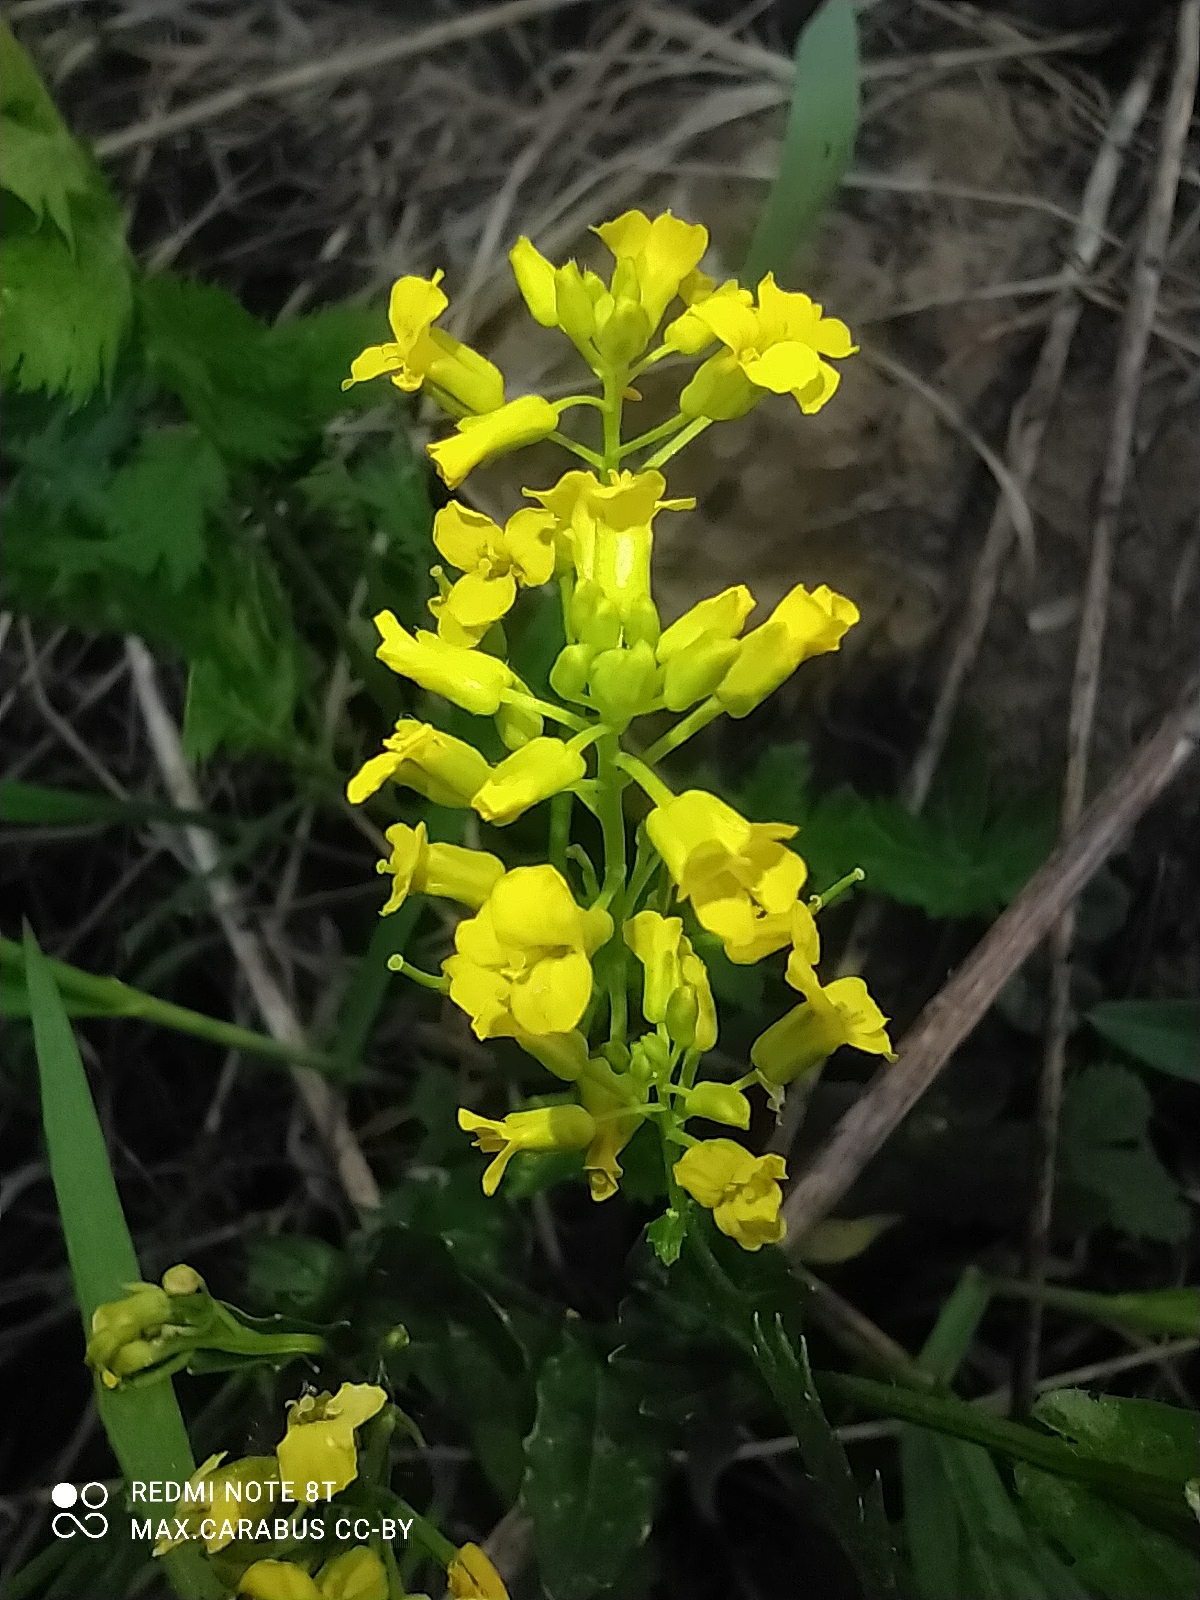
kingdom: Plantae
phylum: Tracheophyta
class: Magnoliopsida
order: Brassicales
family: Brassicaceae
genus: Barbarea
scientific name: Barbarea vulgaris
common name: Cressy-greens
